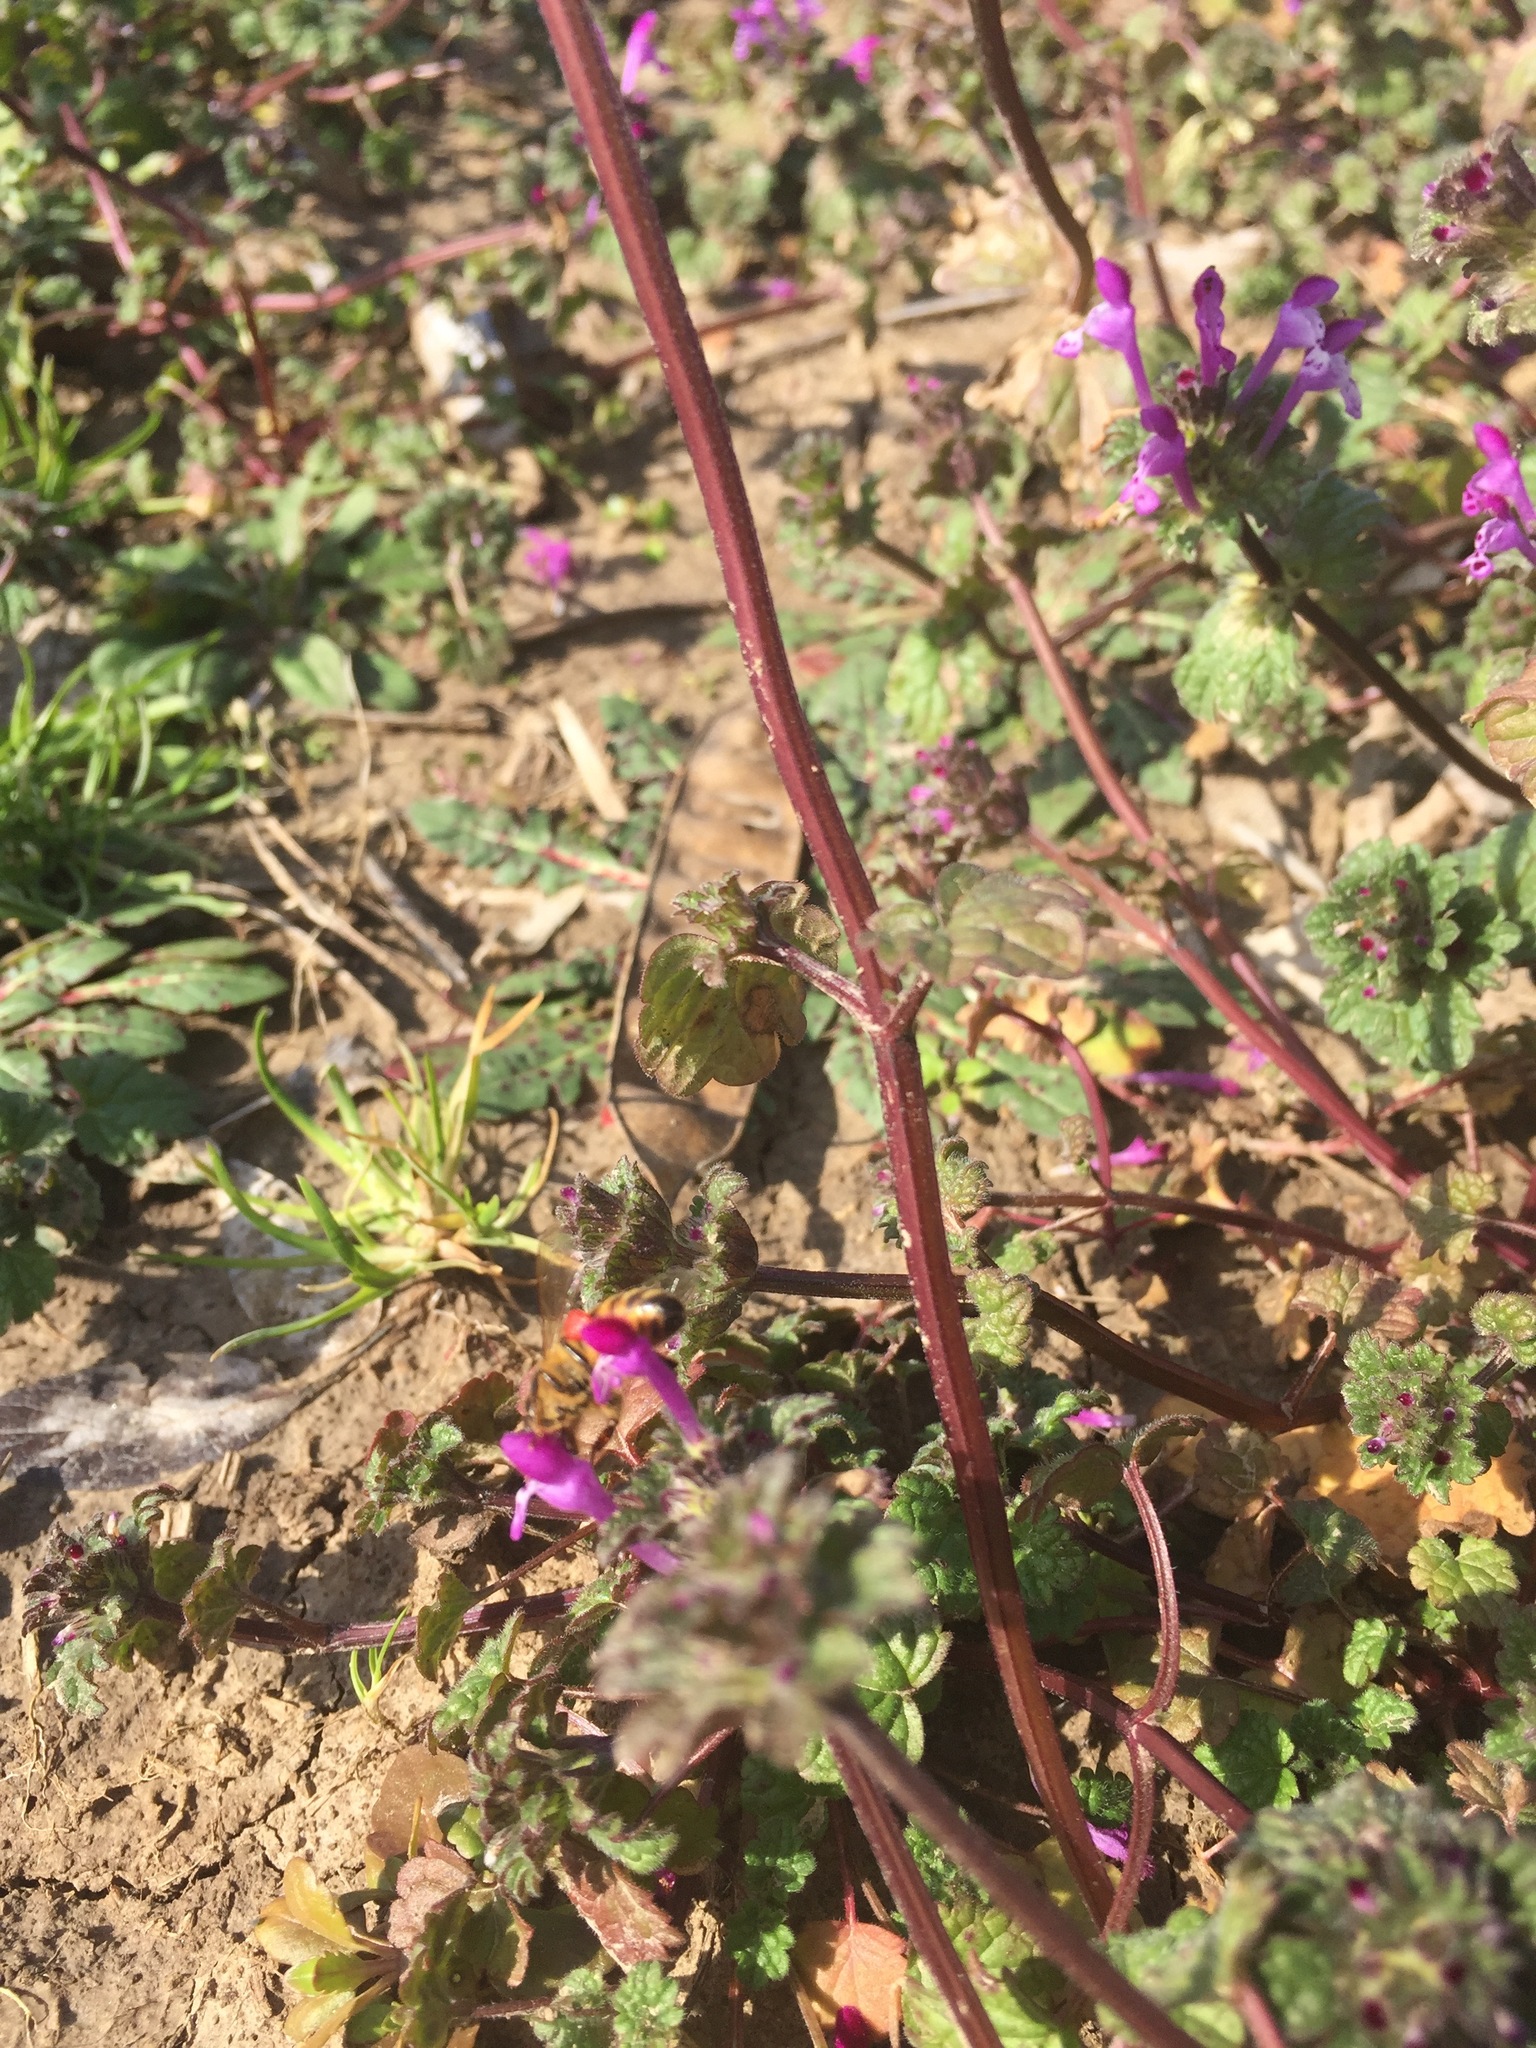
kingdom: Animalia
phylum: Arthropoda
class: Insecta
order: Hymenoptera
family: Apidae
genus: Apis
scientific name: Apis mellifera
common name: Honey bee
